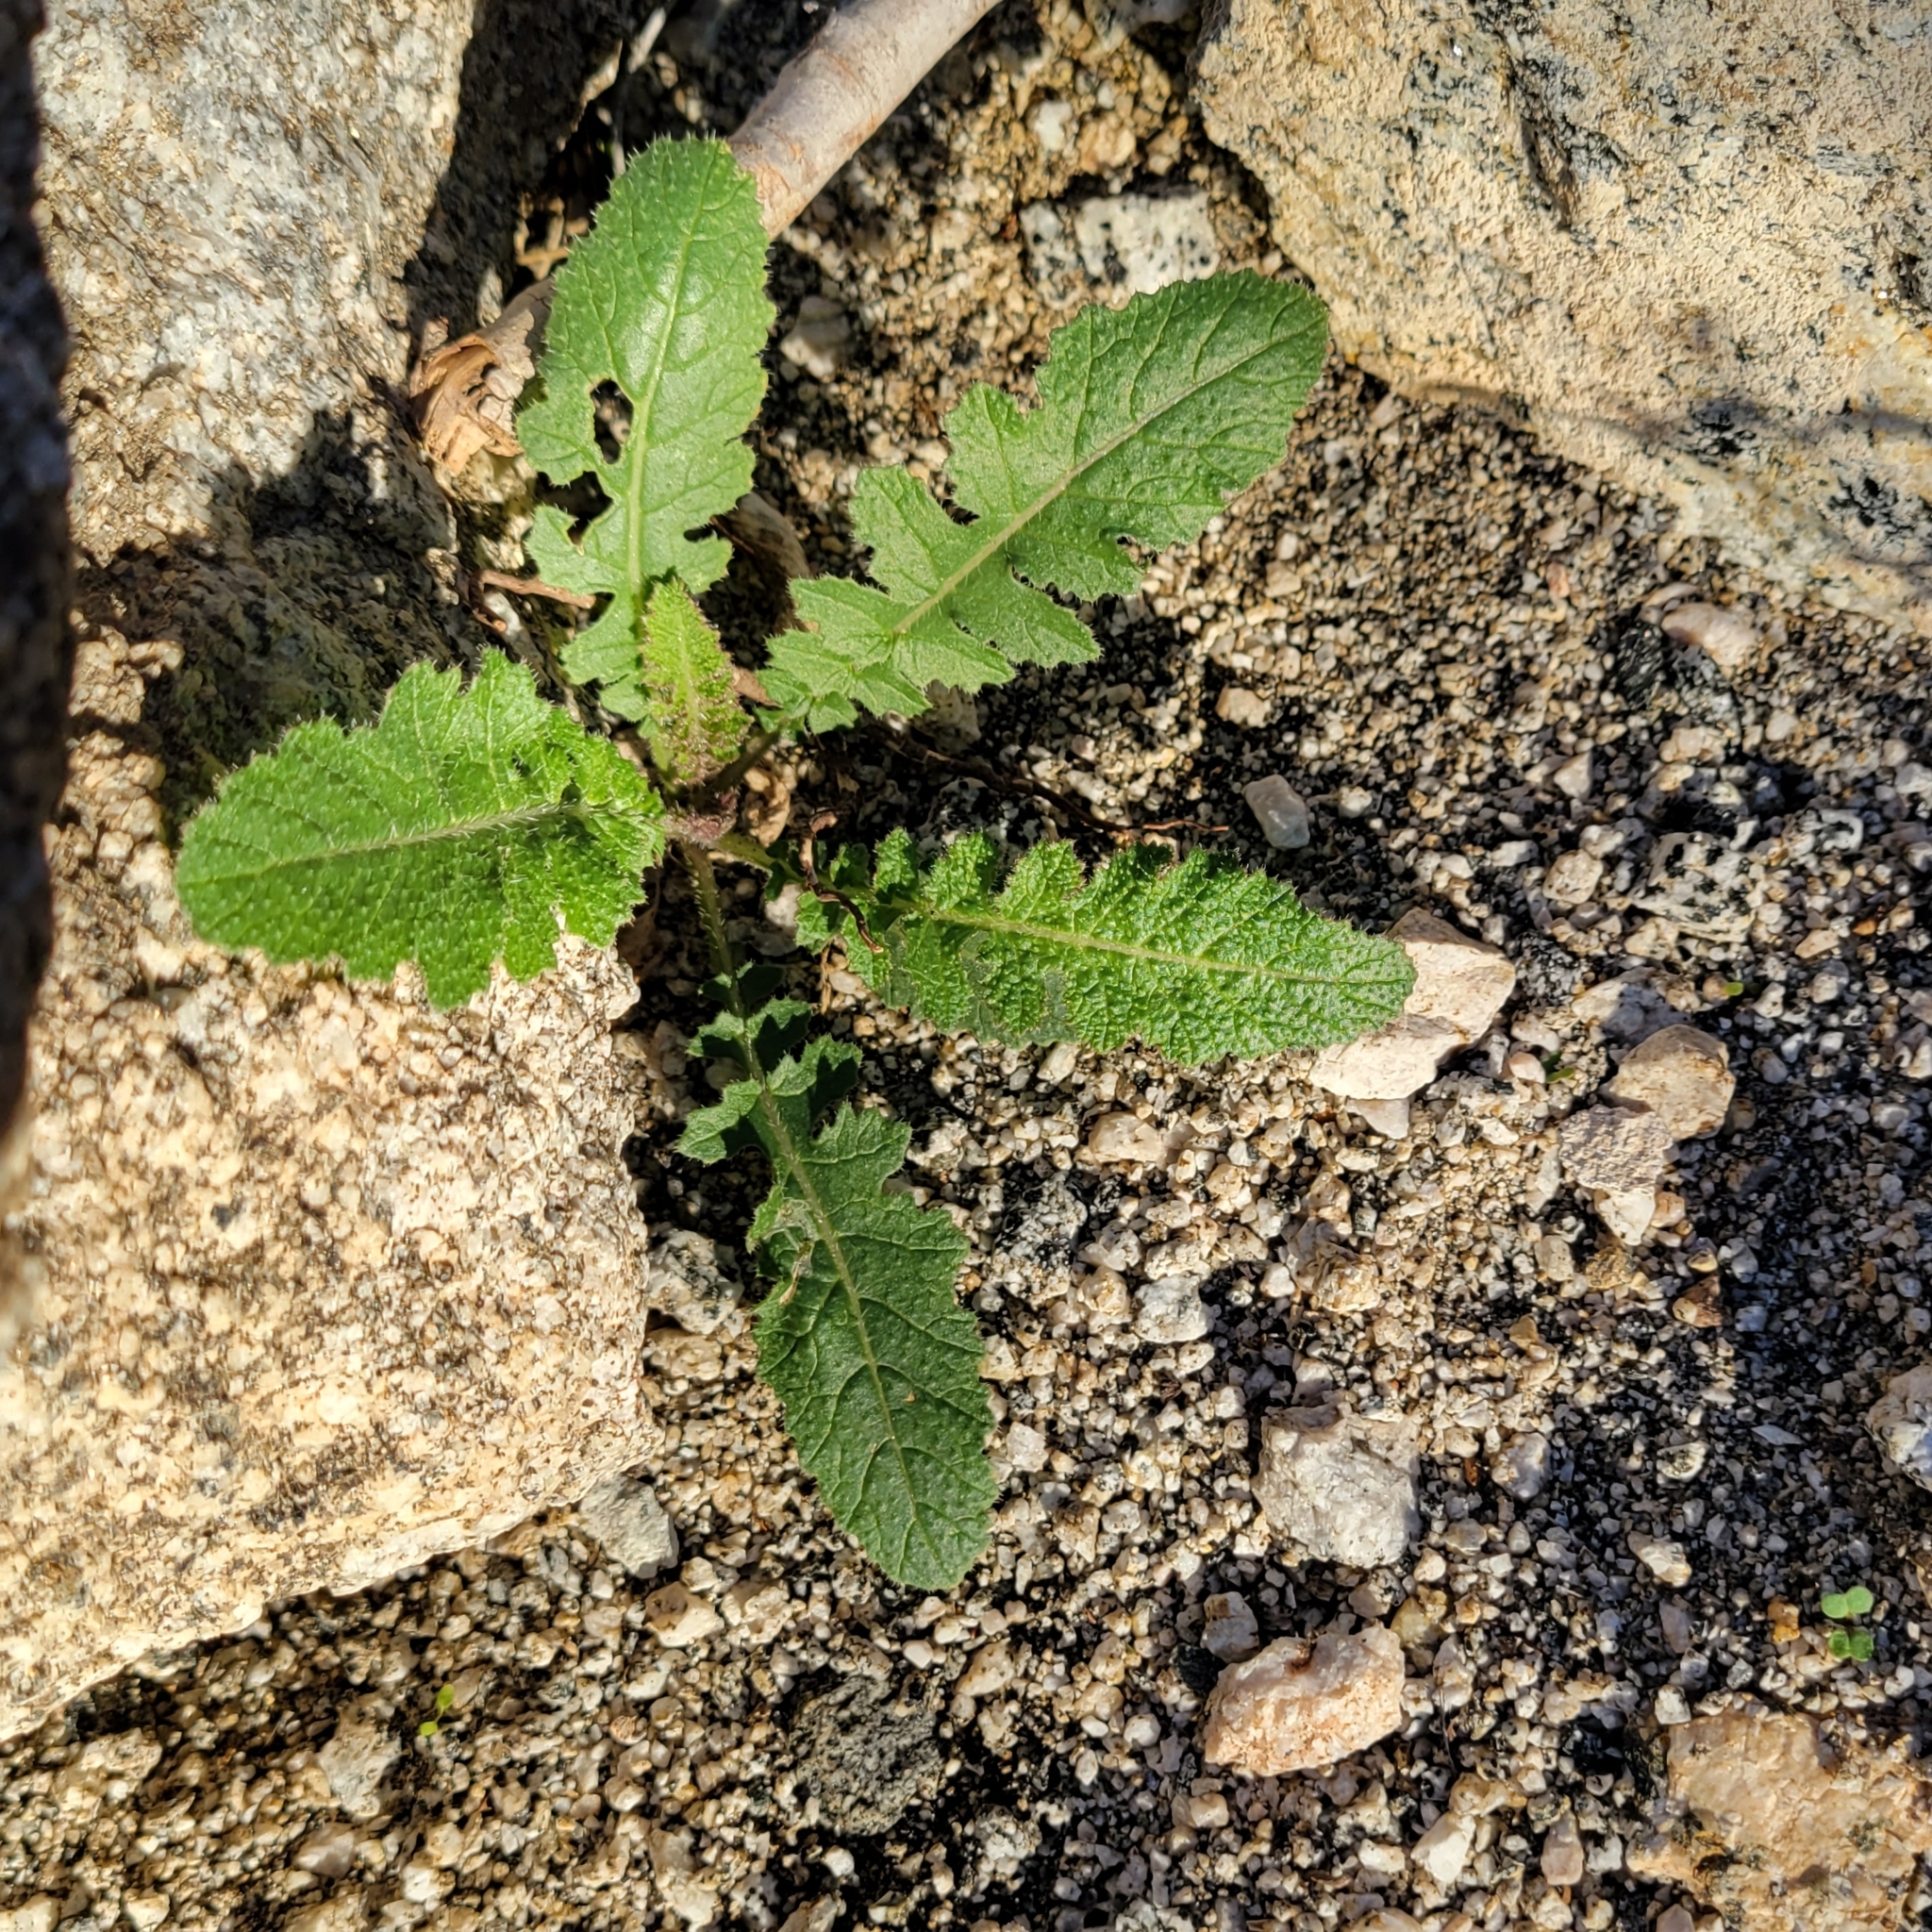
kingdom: Plantae
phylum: Tracheophyta
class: Magnoliopsida
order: Brassicales
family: Brassicaceae
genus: Brassica
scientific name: Brassica tournefortii
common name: Pale cabbage
